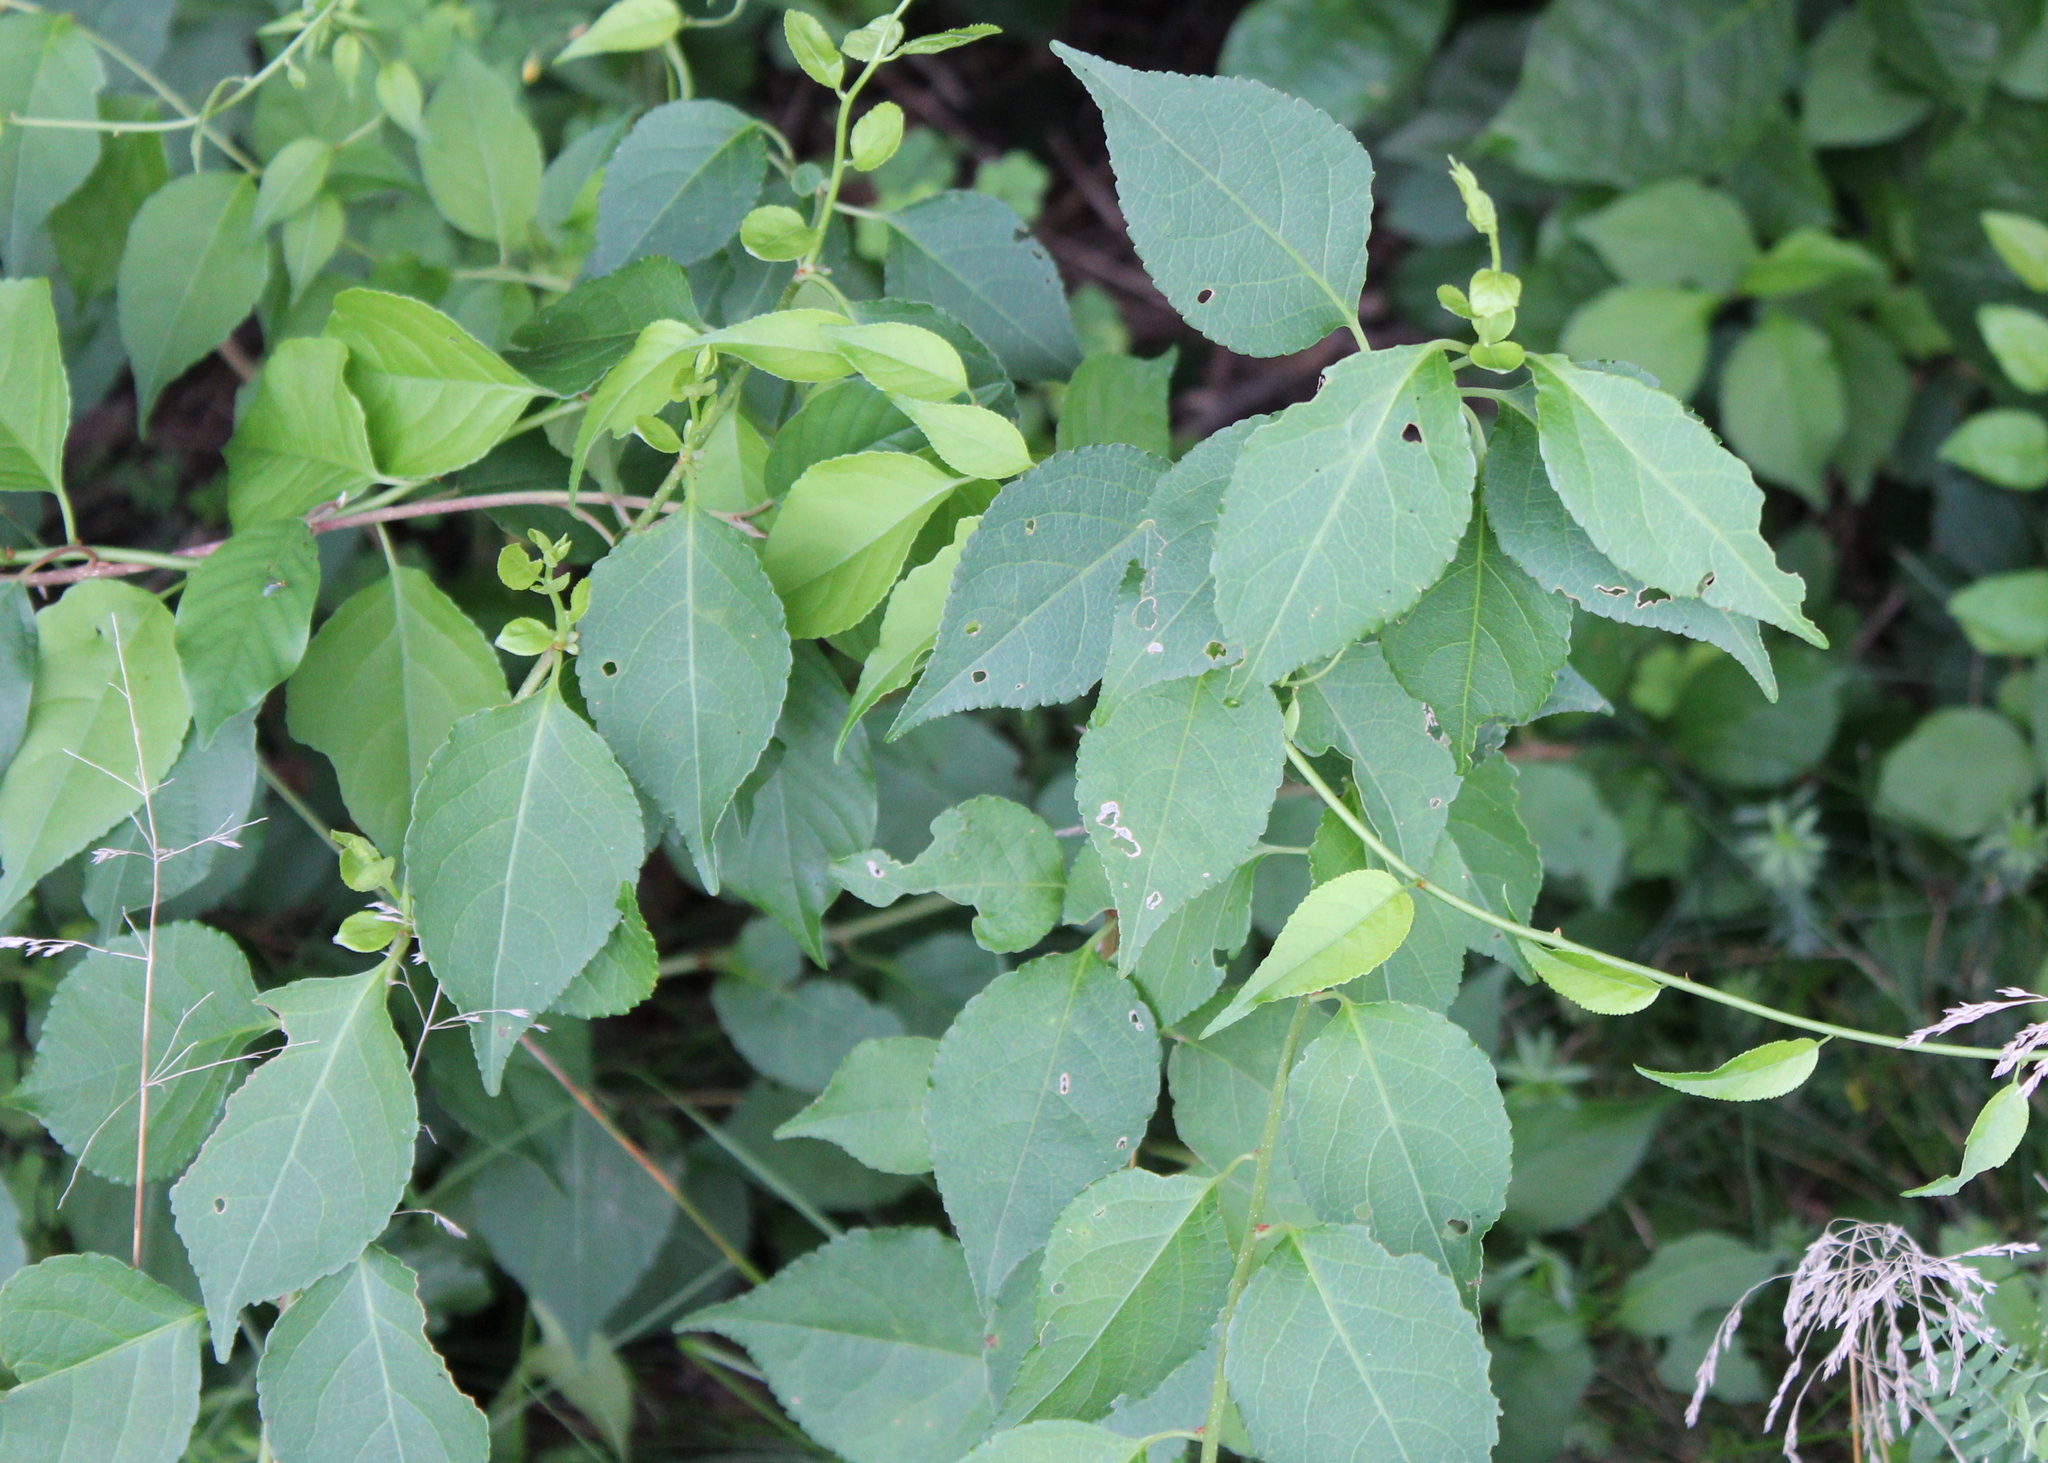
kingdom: Plantae
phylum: Tracheophyta
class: Magnoliopsida
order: Celastrales
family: Celastraceae
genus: Celastrus
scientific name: Celastrus orbiculatus
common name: Oriental bittersweet
